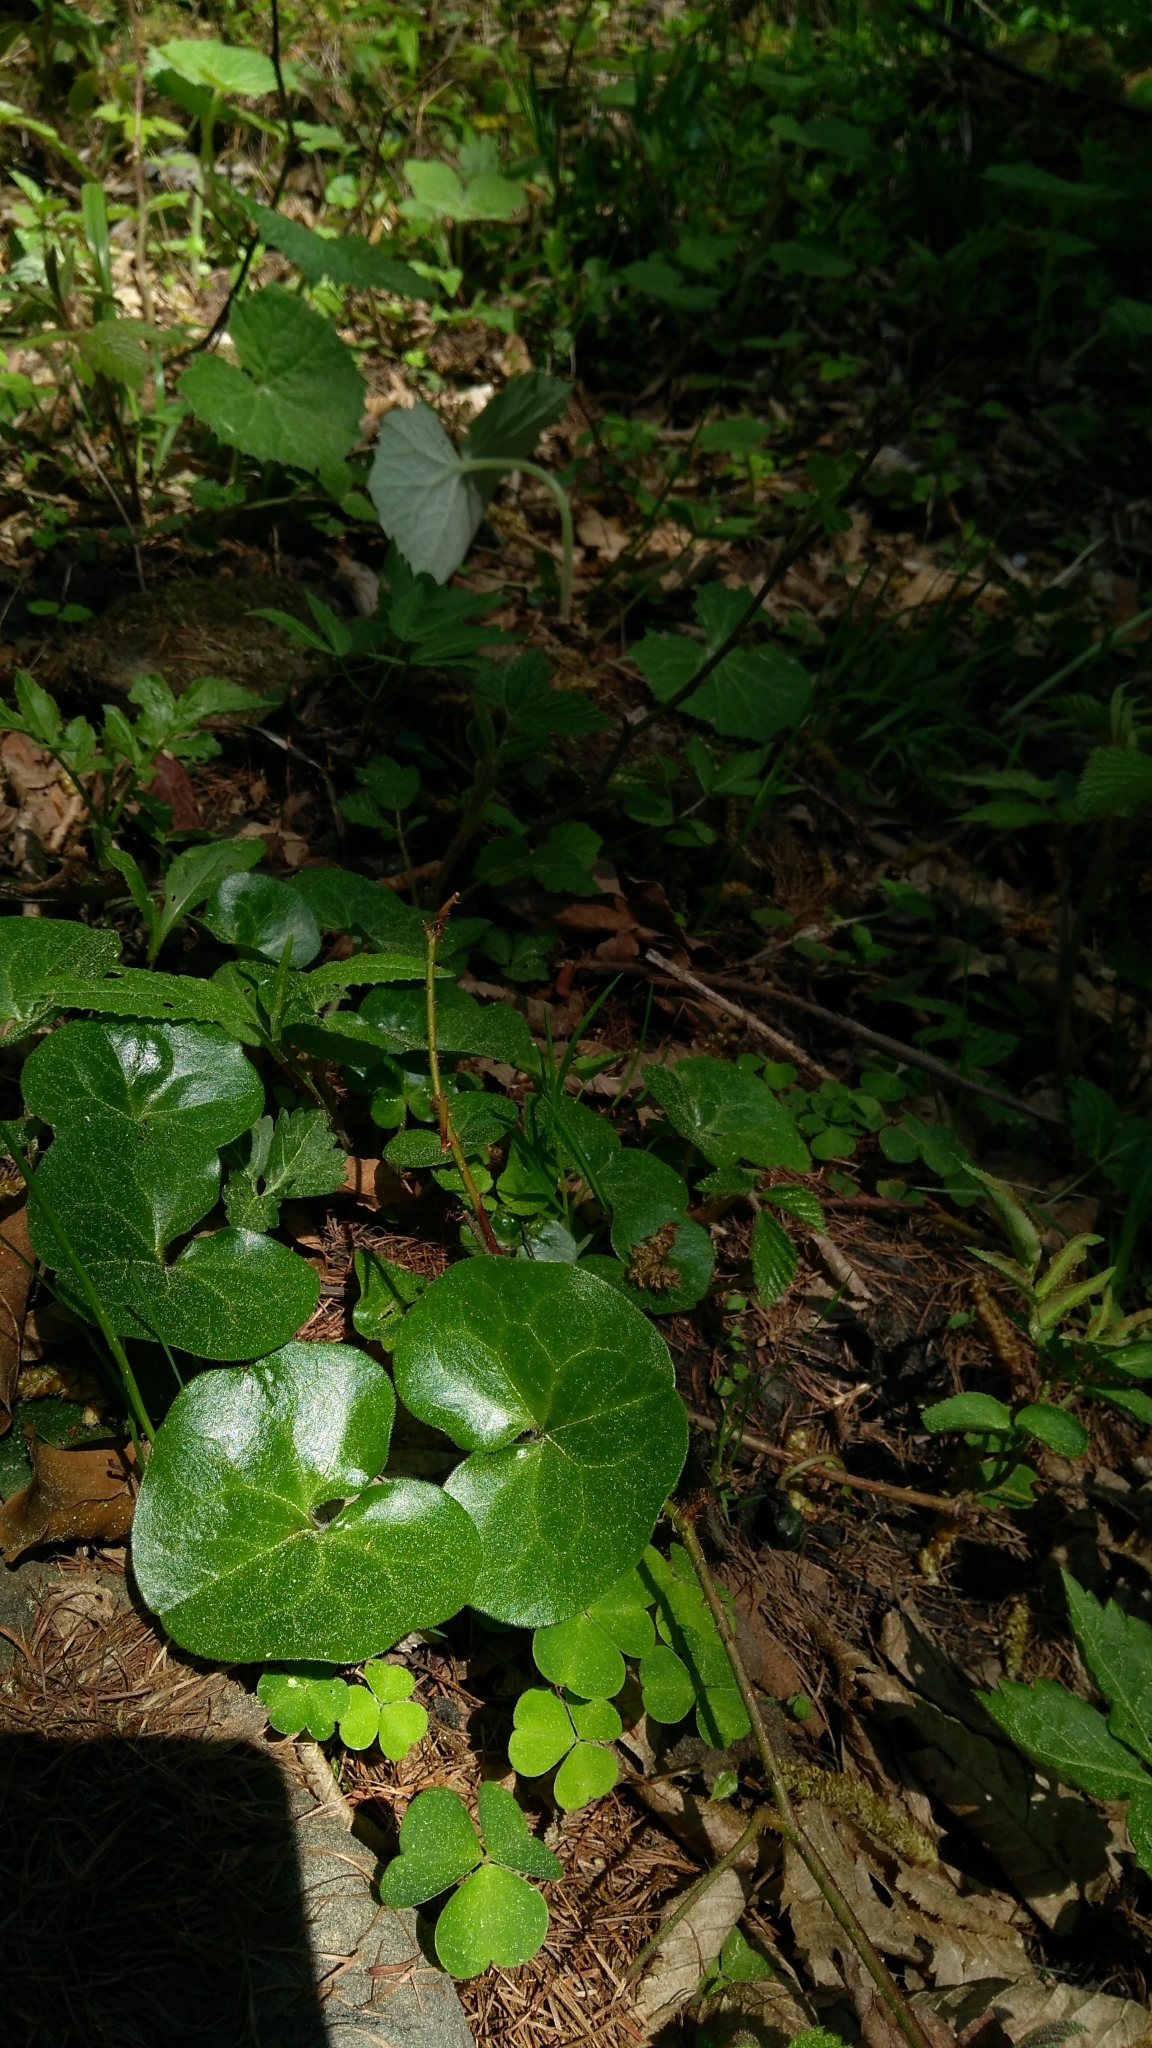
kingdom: Plantae
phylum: Tracheophyta
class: Magnoliopsida
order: Piperales
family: Aristolochiaceae
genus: Asarum
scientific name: Asarum europaeum
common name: Asarabacca
